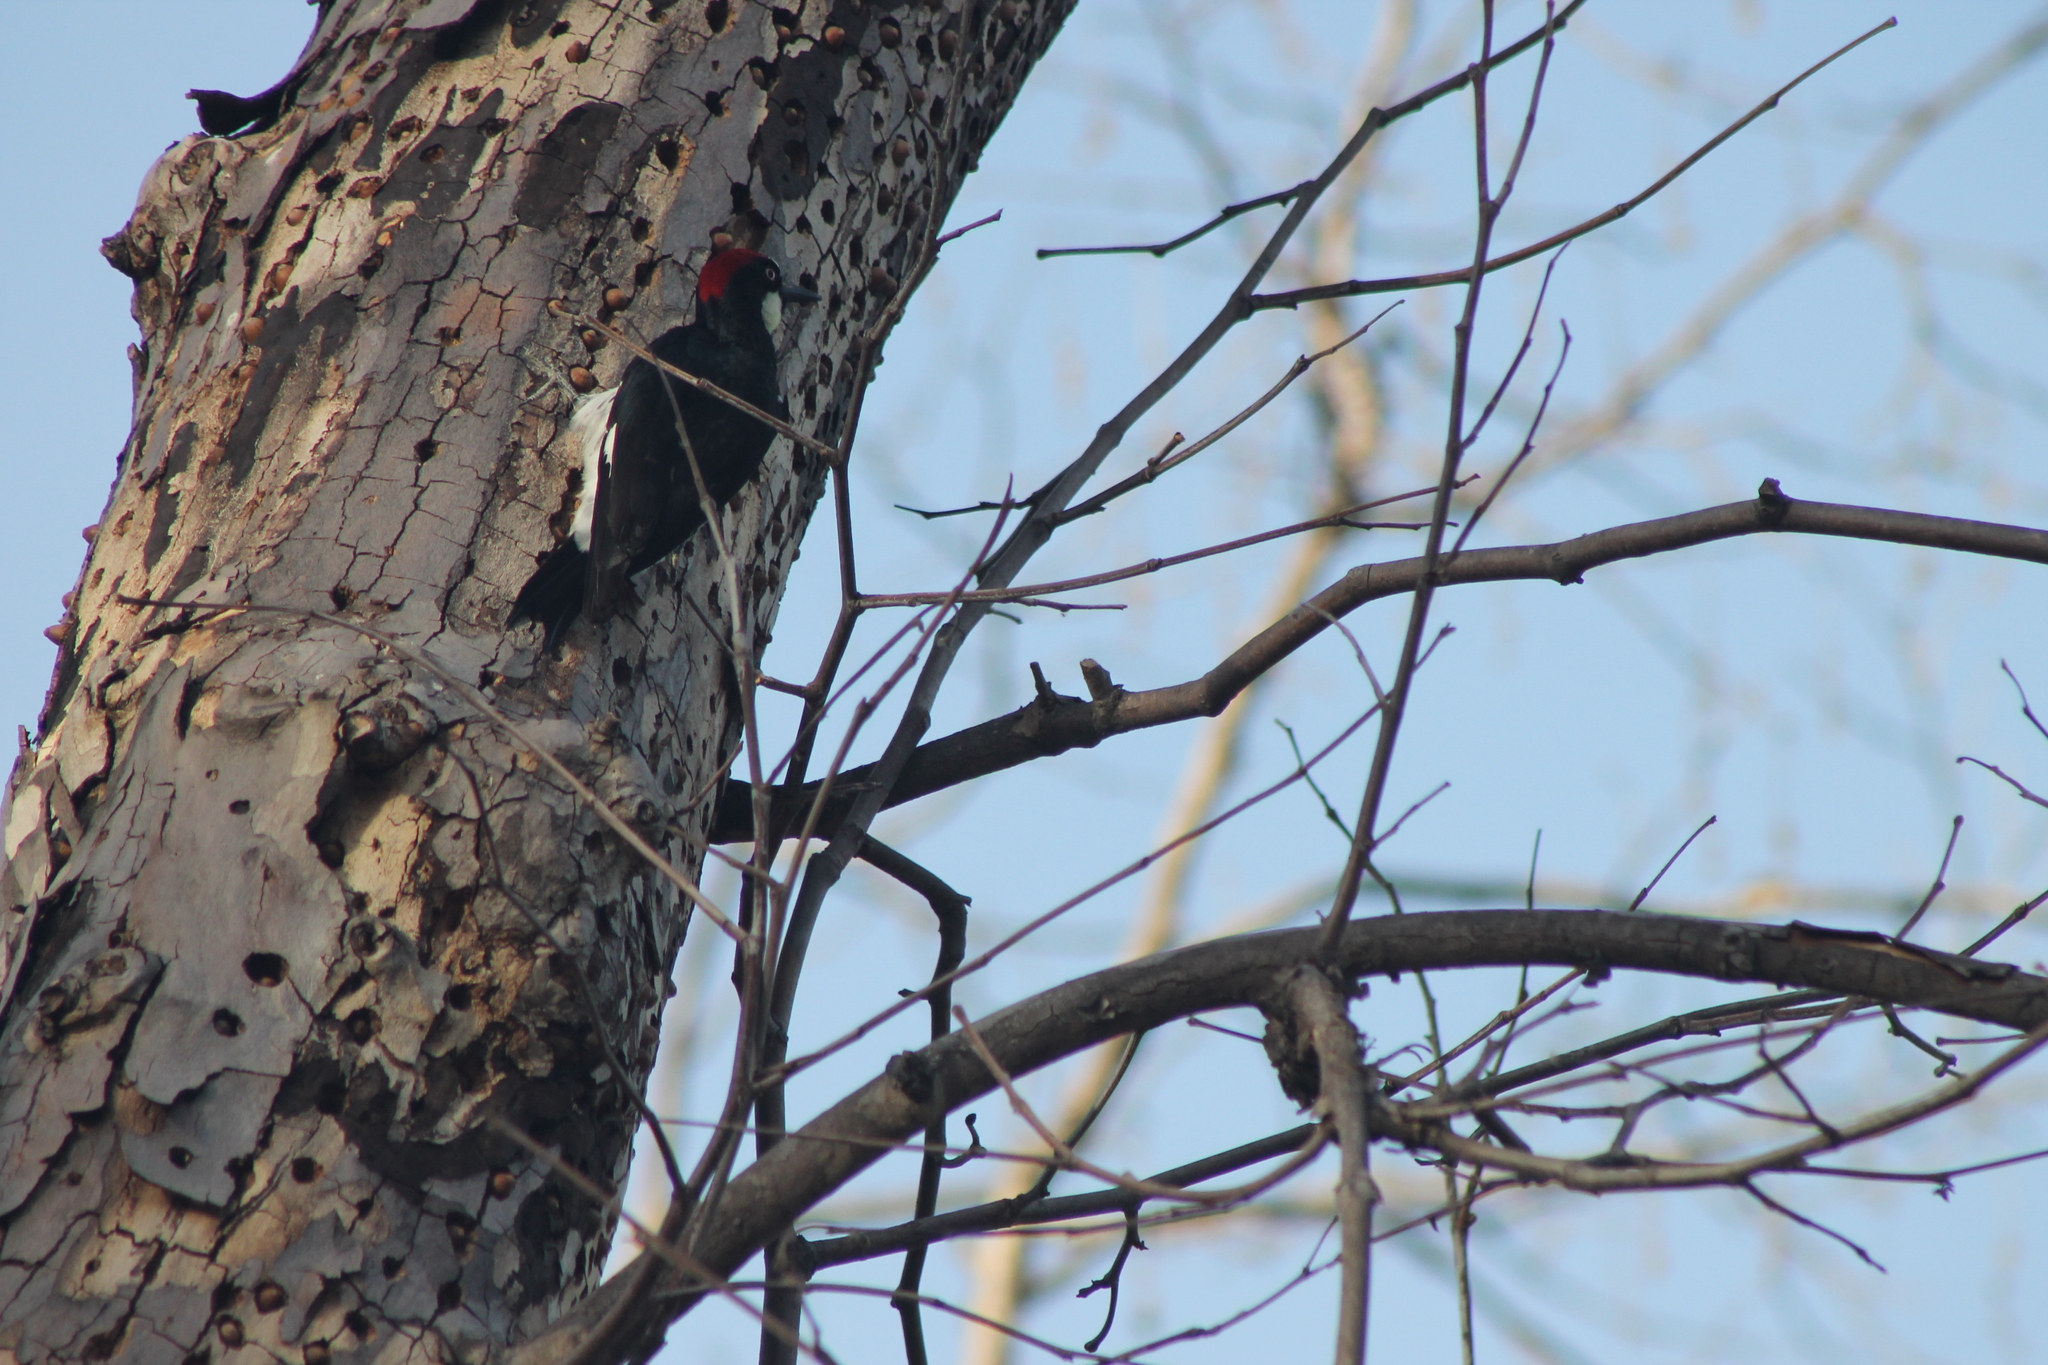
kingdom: Animalia
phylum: Chordata
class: Aves
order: Piciformes
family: Picidae
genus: Melanerpes
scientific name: Melanerpes formicivorus
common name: Acorn woodpecker
